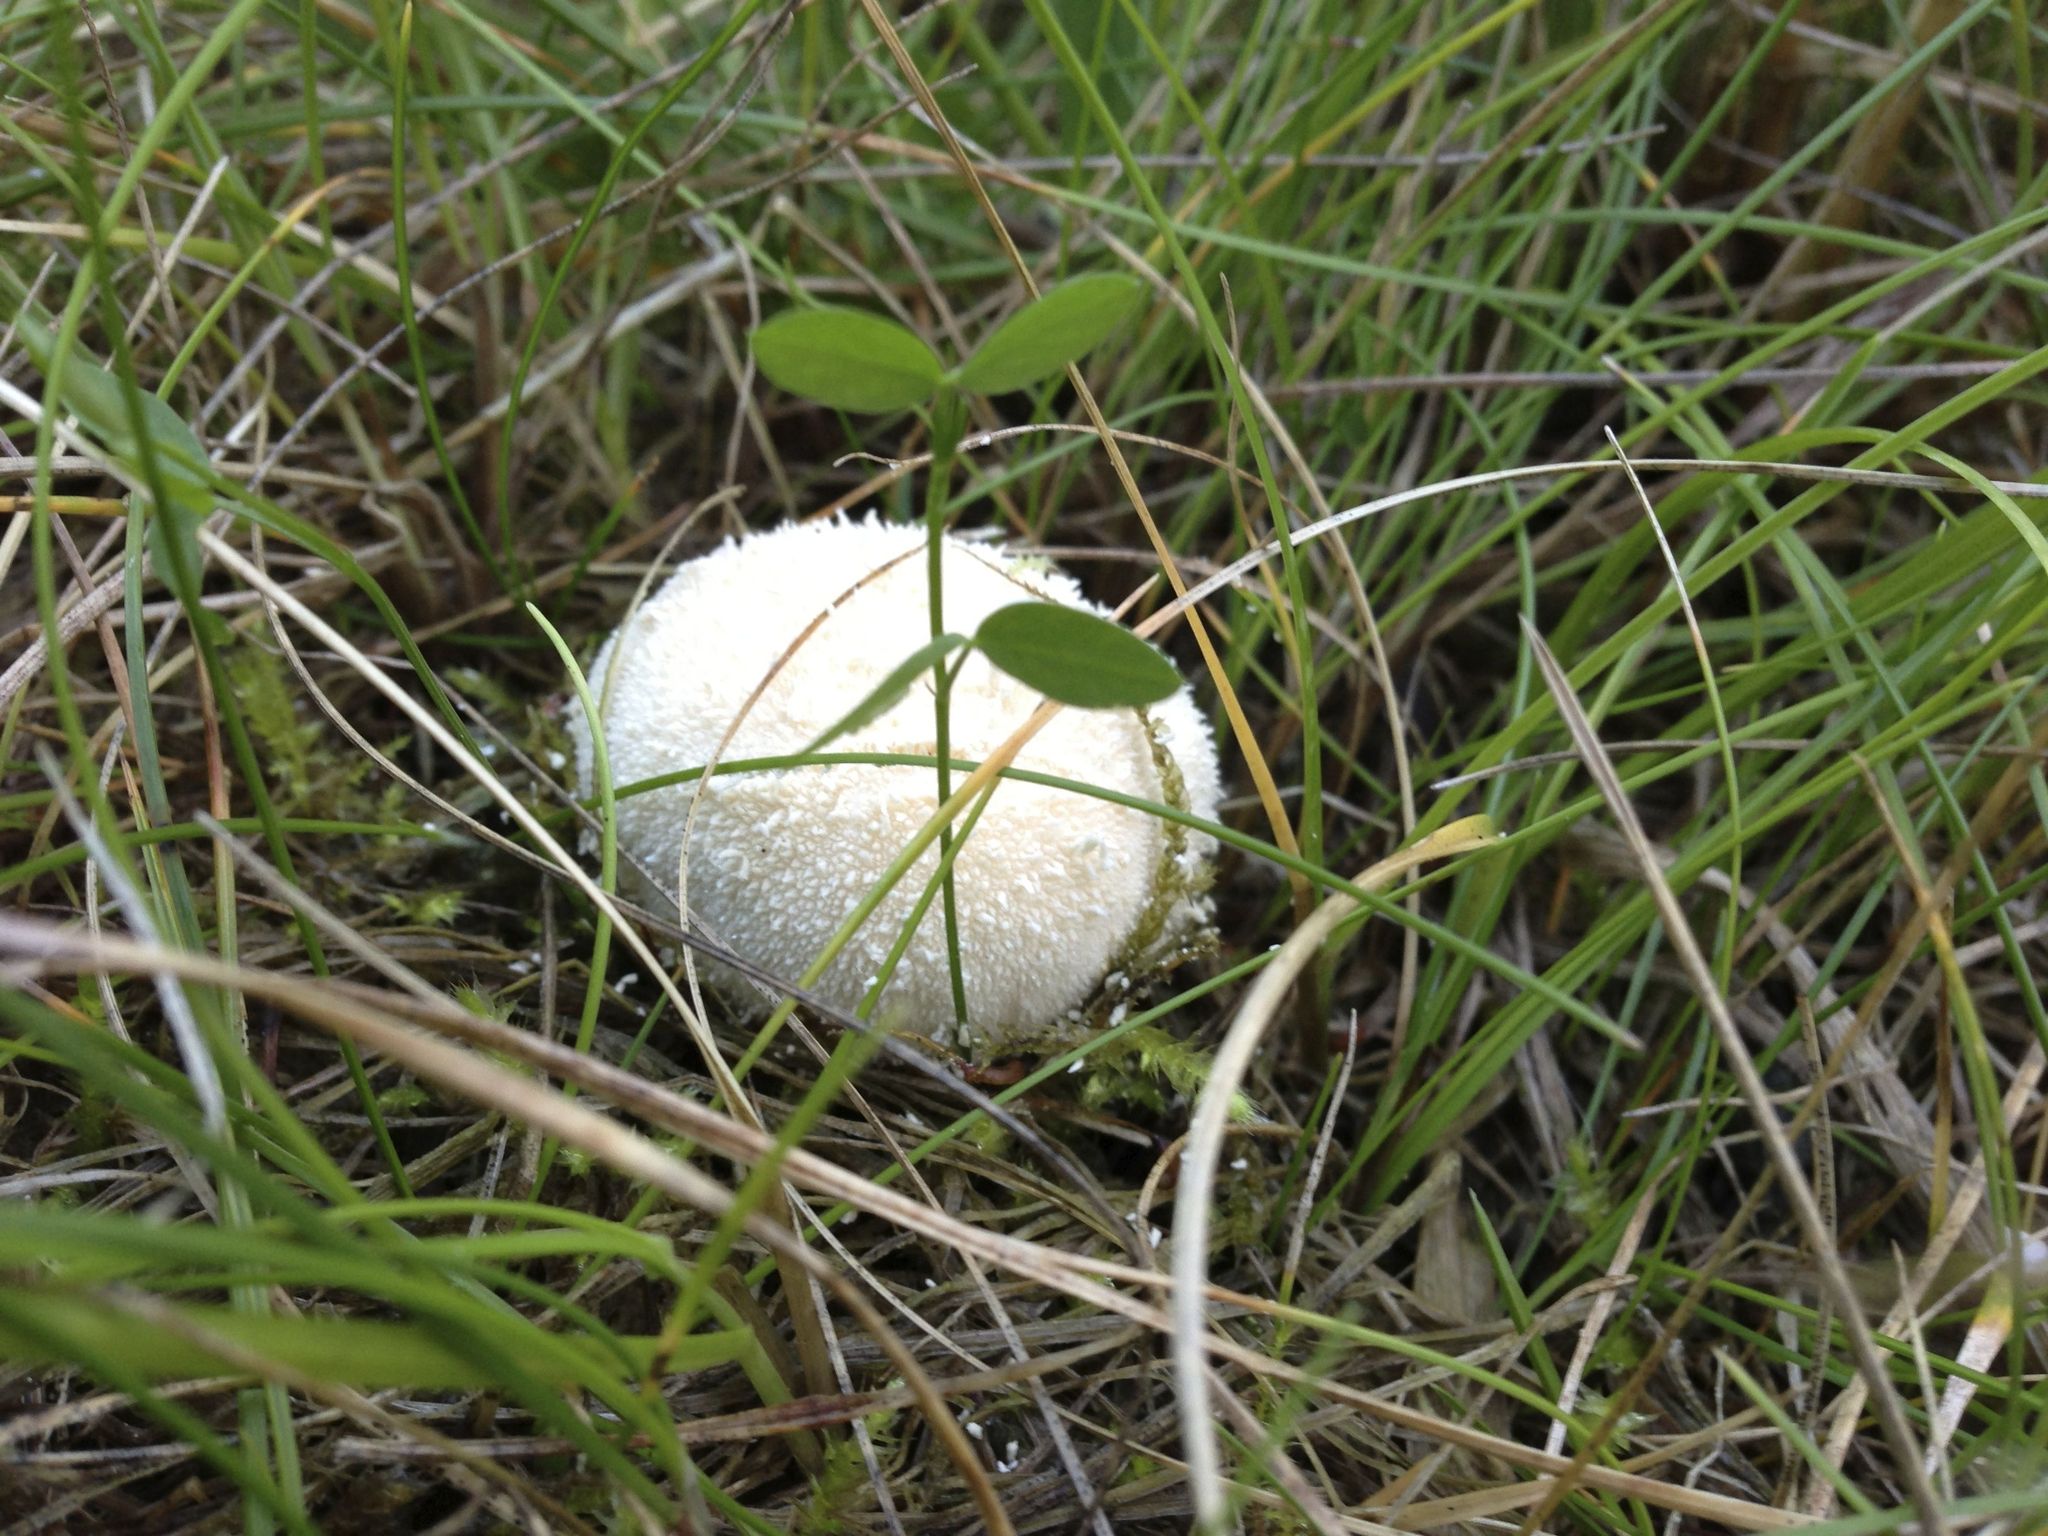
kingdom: Fungi
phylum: Basidiomycota
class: Agaricomycetes
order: Agaricales
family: Lycoperdaceae
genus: Lycoperdon
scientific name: Lycoperdon pratense
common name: Meadow puffball
